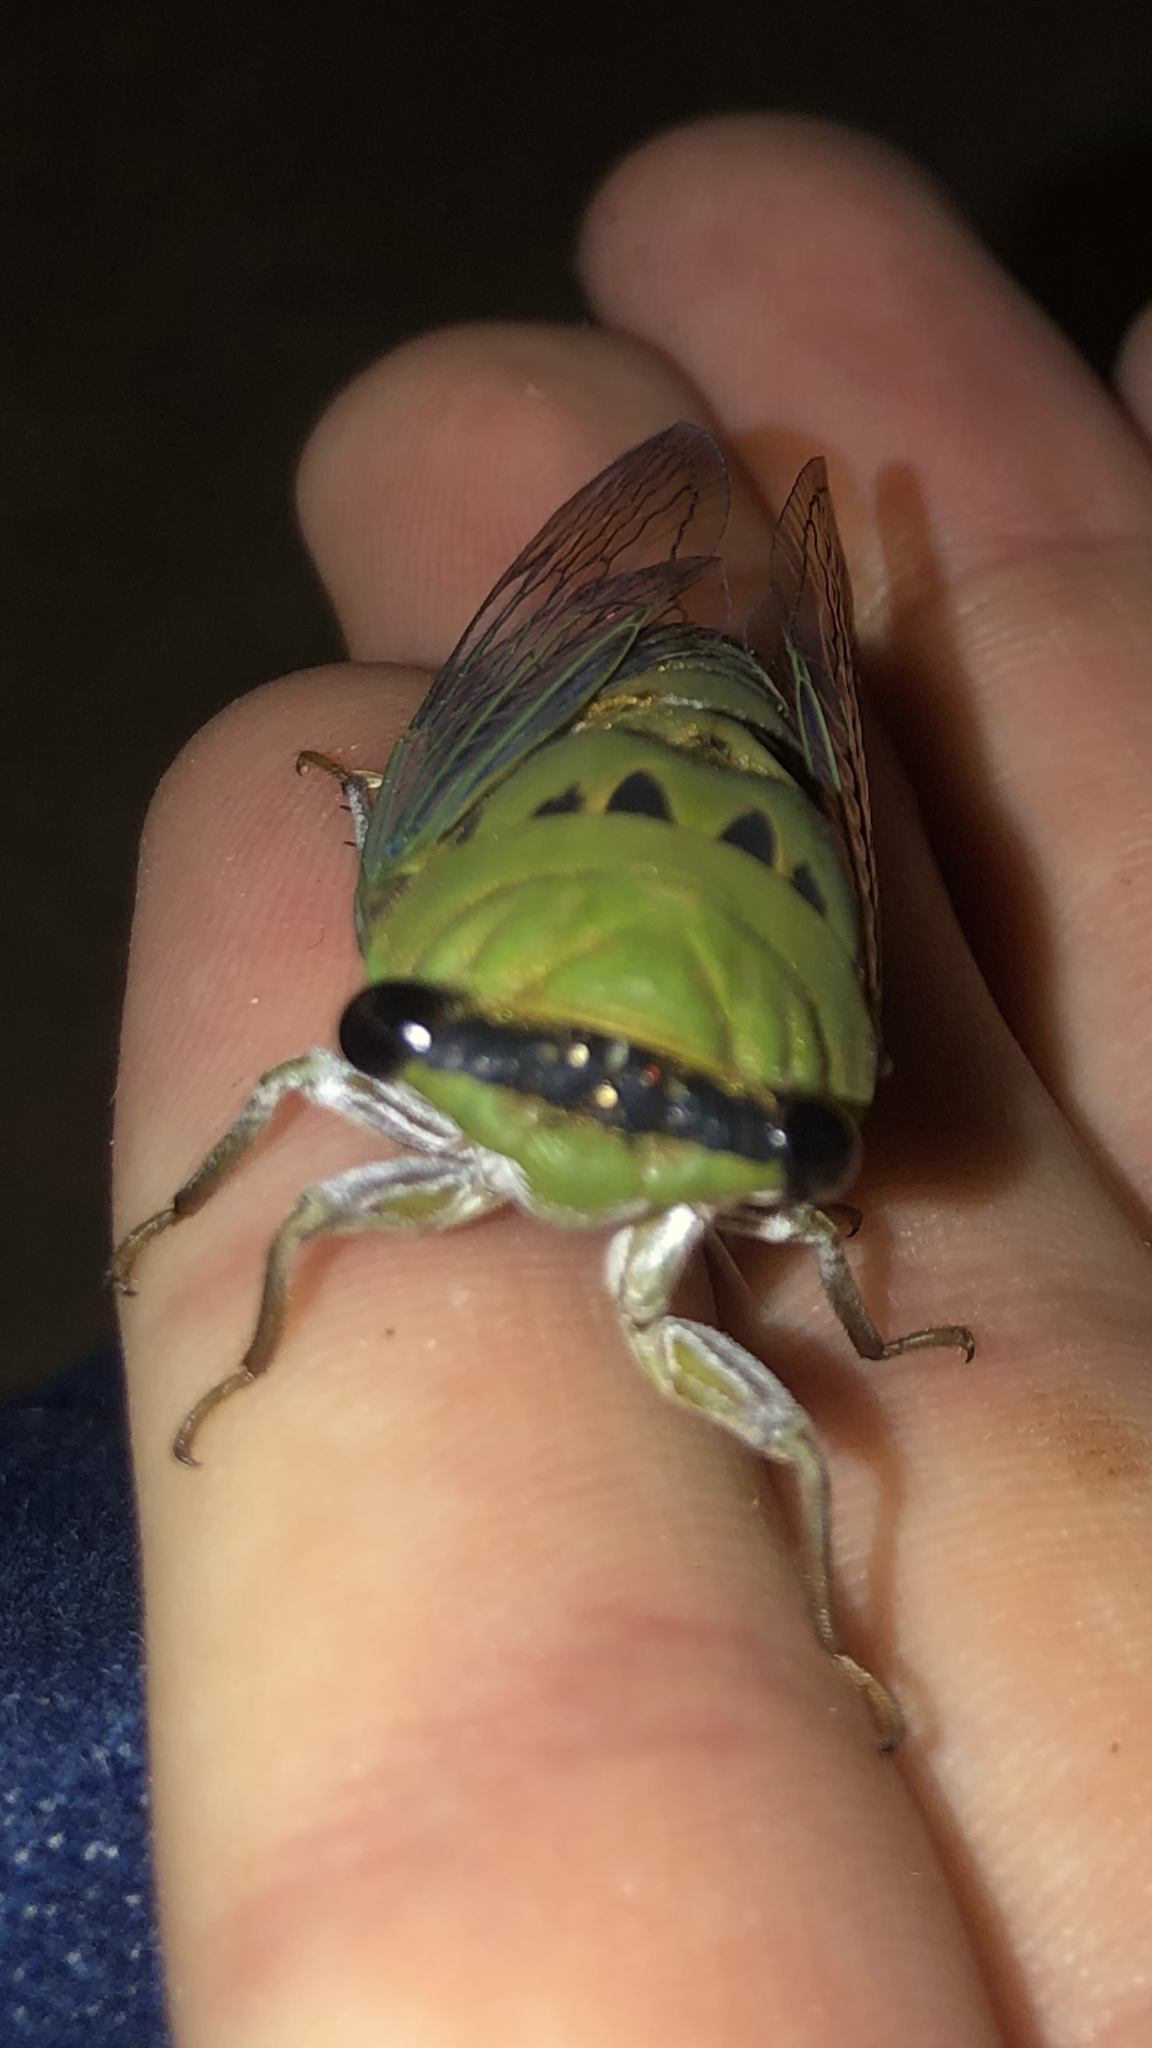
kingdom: Animalia
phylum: Arthropoda
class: Insecta
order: Hemiptera
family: Cicadidae
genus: Neotibicen
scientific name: Neotibicen superbus
